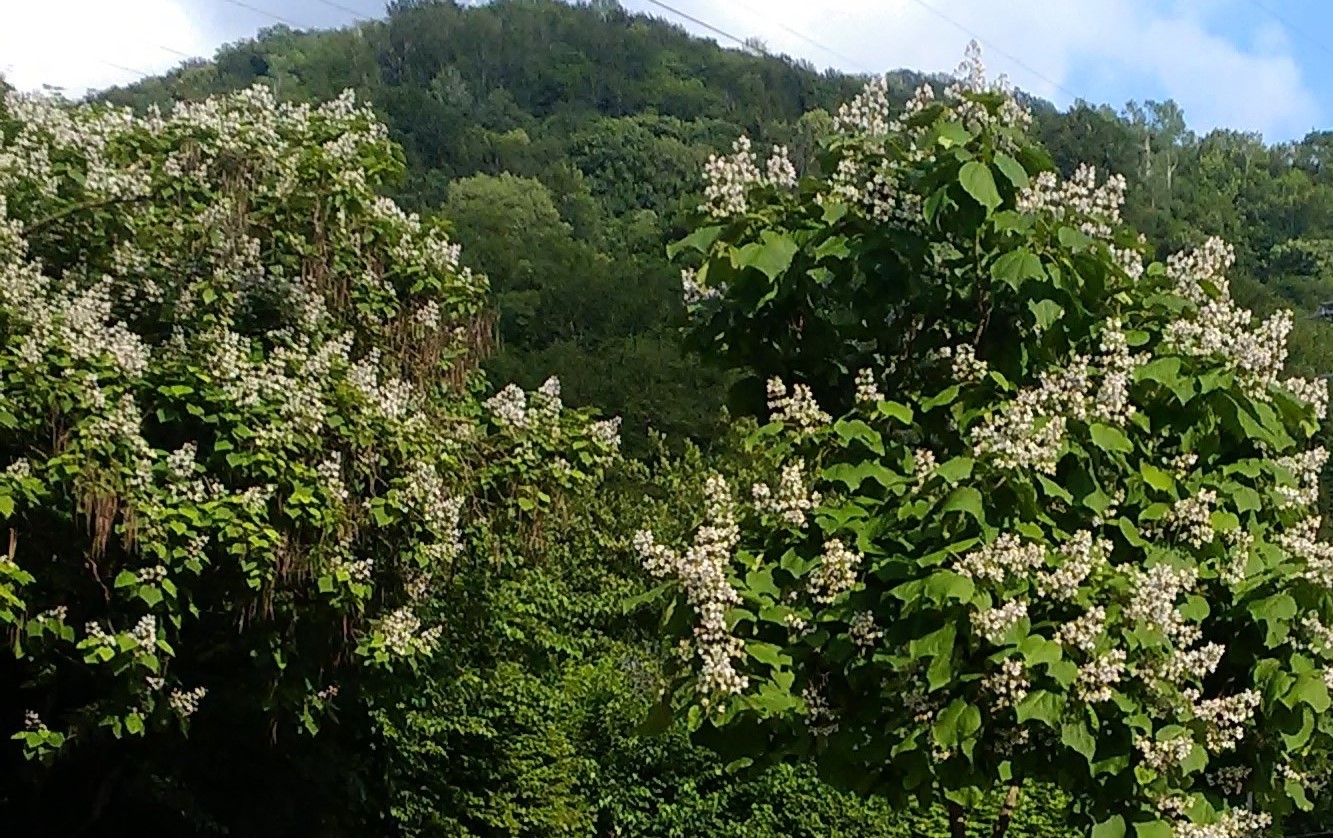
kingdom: Plantae
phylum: Tracheophyta
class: Magnoliopsida
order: Lamiales
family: Bignoniaceae
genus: Catalpa
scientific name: Catalpa bignonioides
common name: Southern catalpa
